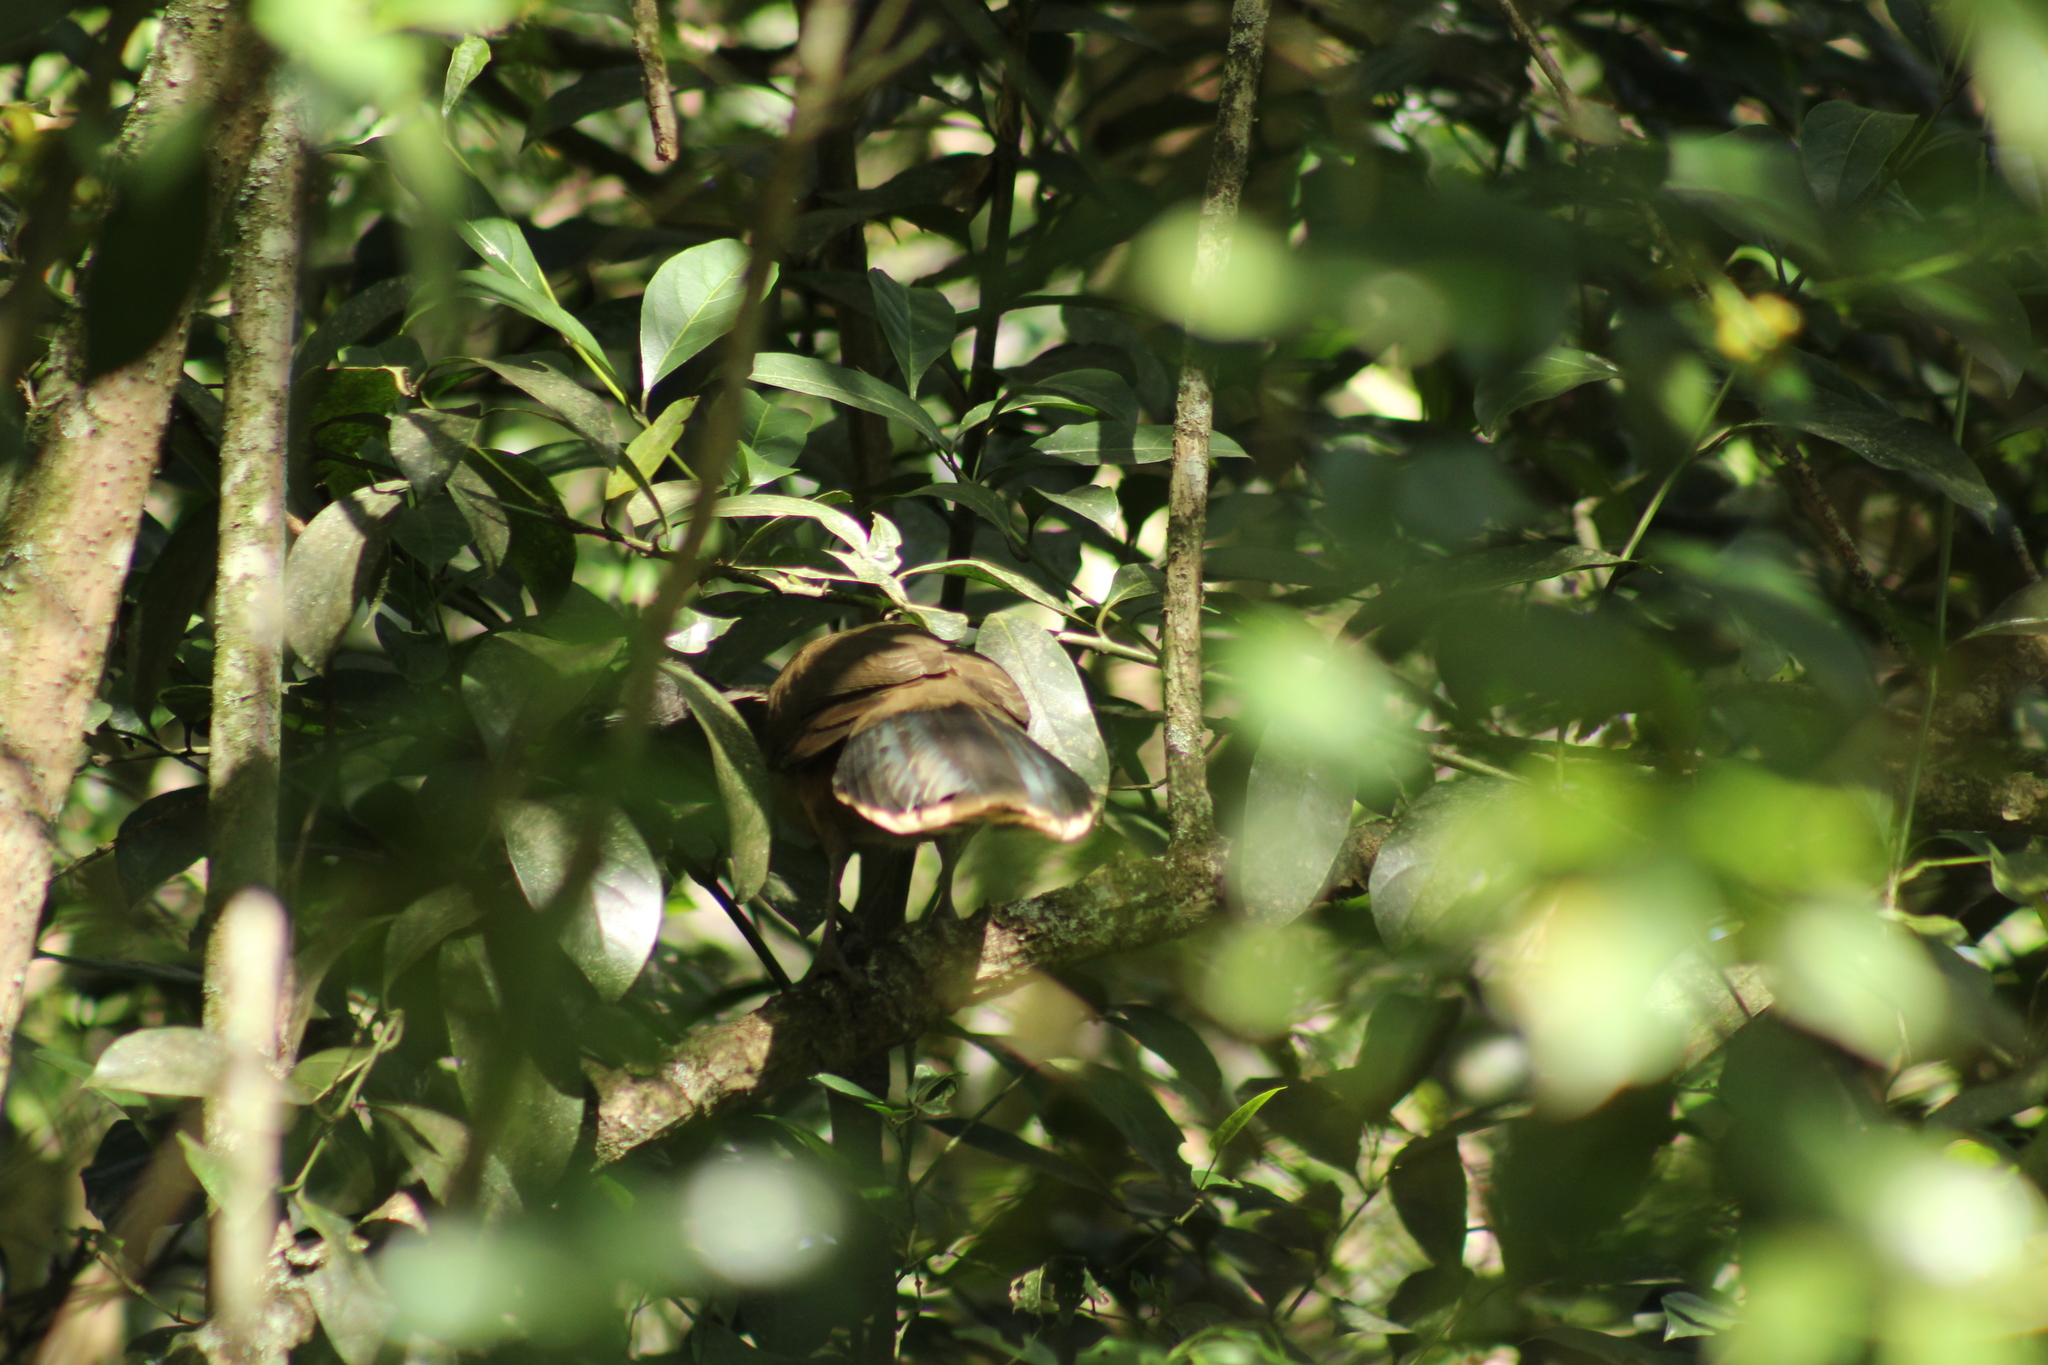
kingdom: Animalia
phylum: Chordata
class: Aves
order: Galliformes
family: Cracidae
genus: Ortalis
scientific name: Ortalis vetula
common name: Plain chachalaca
